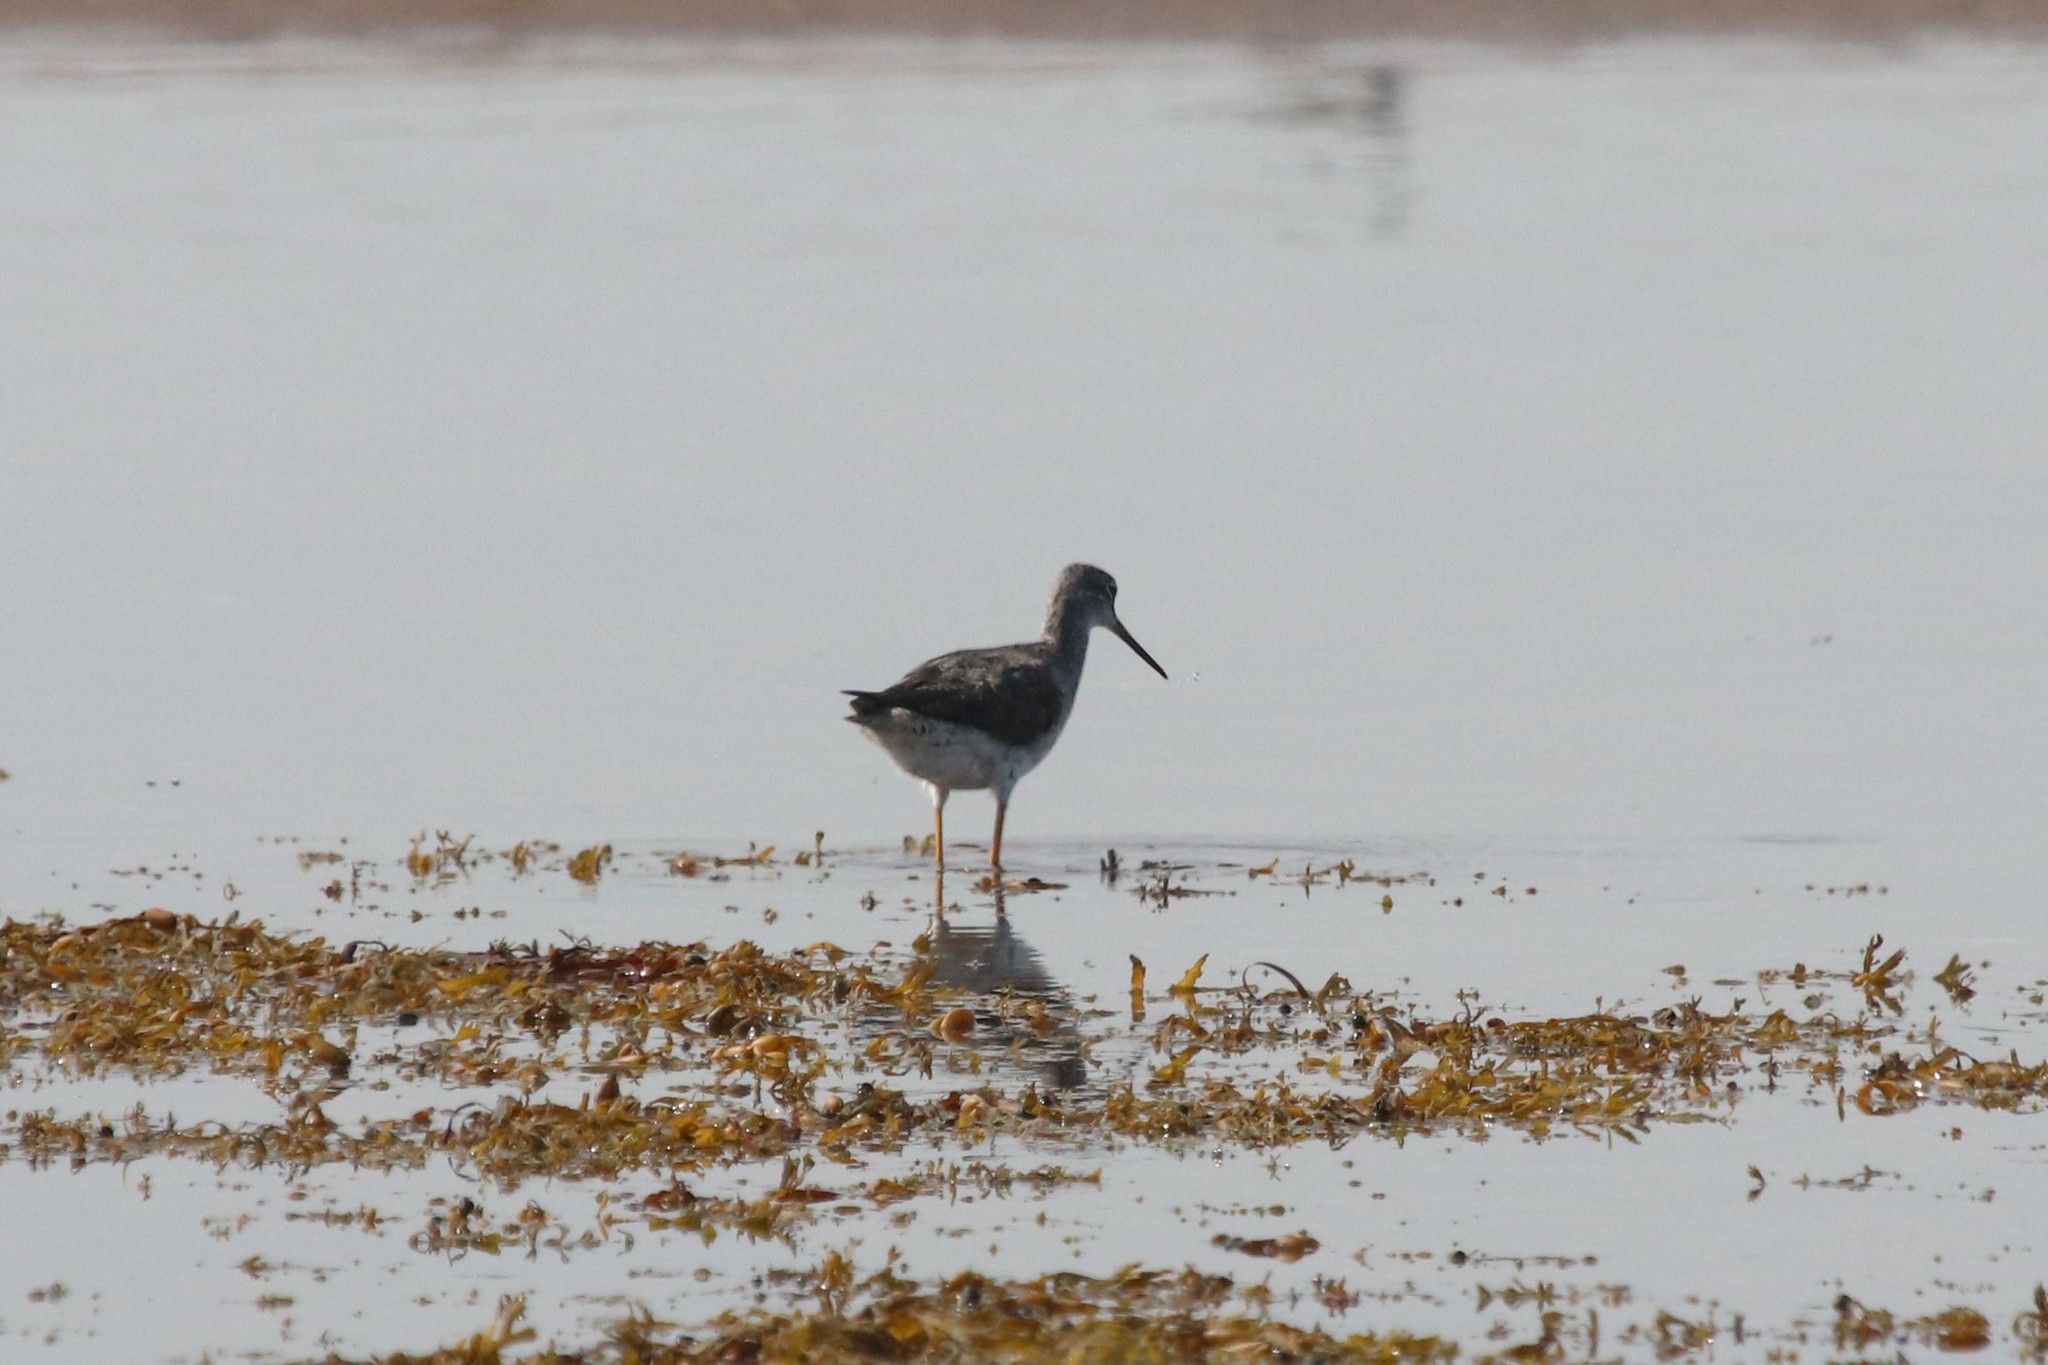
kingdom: Animalia
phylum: Chordata
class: Aves
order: Charadriiformes
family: Scolopacidae
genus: Tringa
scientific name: Tringa melanoleuca
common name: Greater yellowlegs
